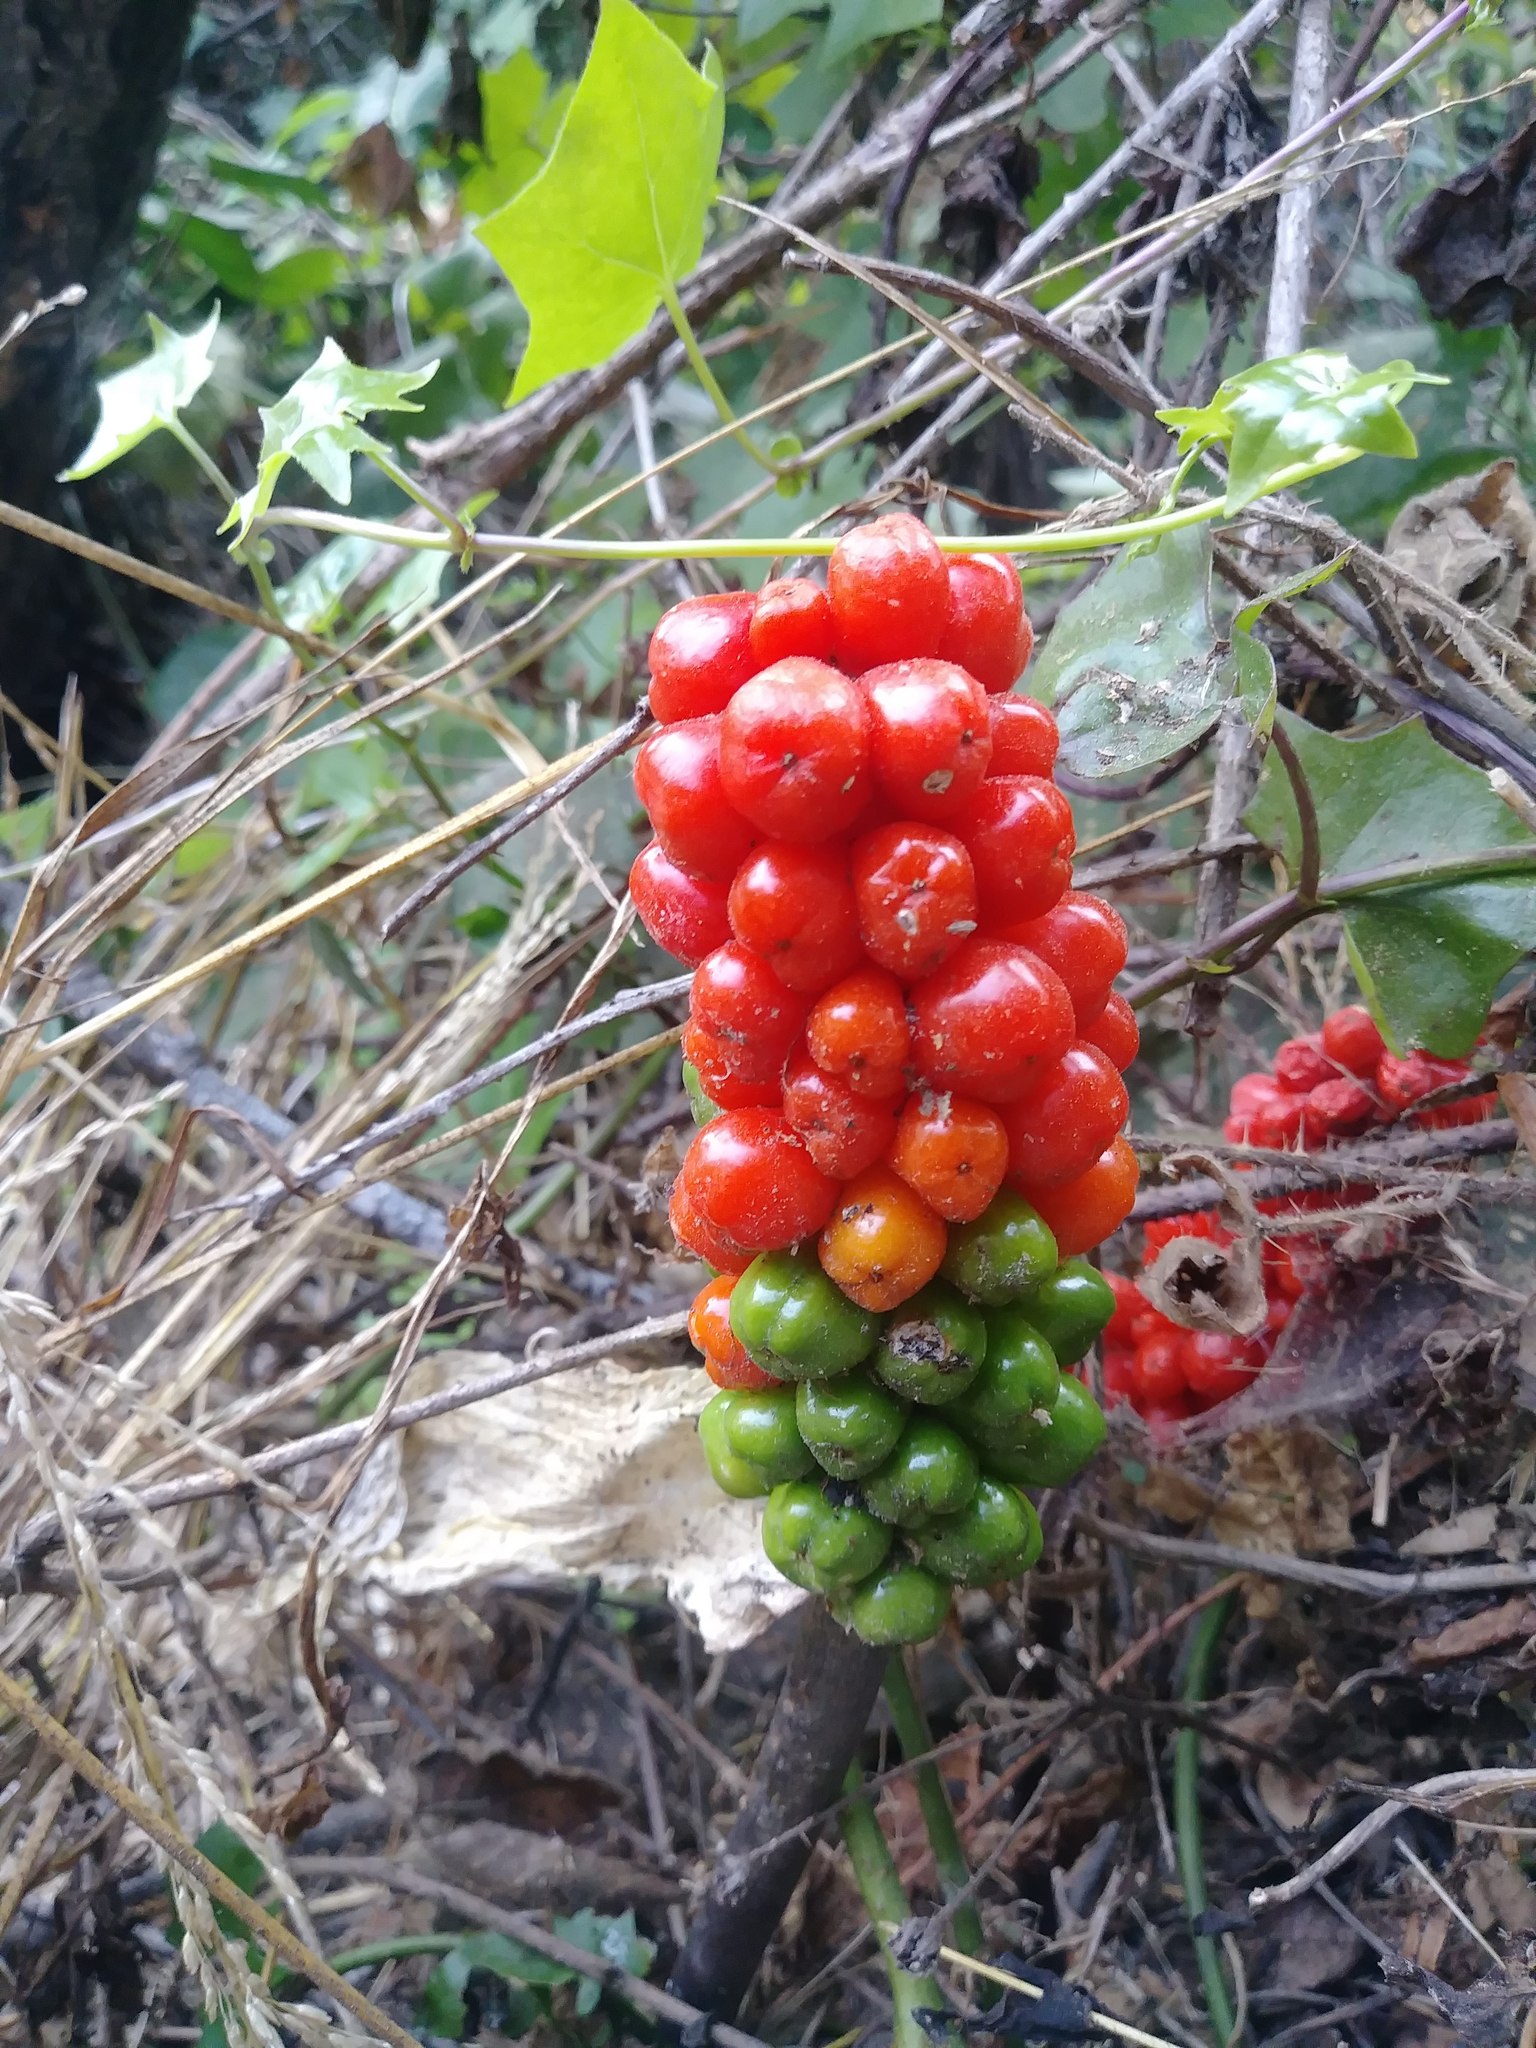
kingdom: Plantae
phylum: Tracheophyta
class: Liliopsida
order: Alismatales
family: Araceae
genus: Arum
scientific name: Arum italicum
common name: Italian lords-and-ladies
